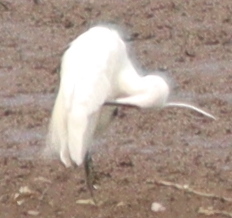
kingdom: Animalia
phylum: Chordata
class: Aves
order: Pelecaniformes
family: Ardeidae
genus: Egretta
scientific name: Egretta garzetta
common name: Little egret
